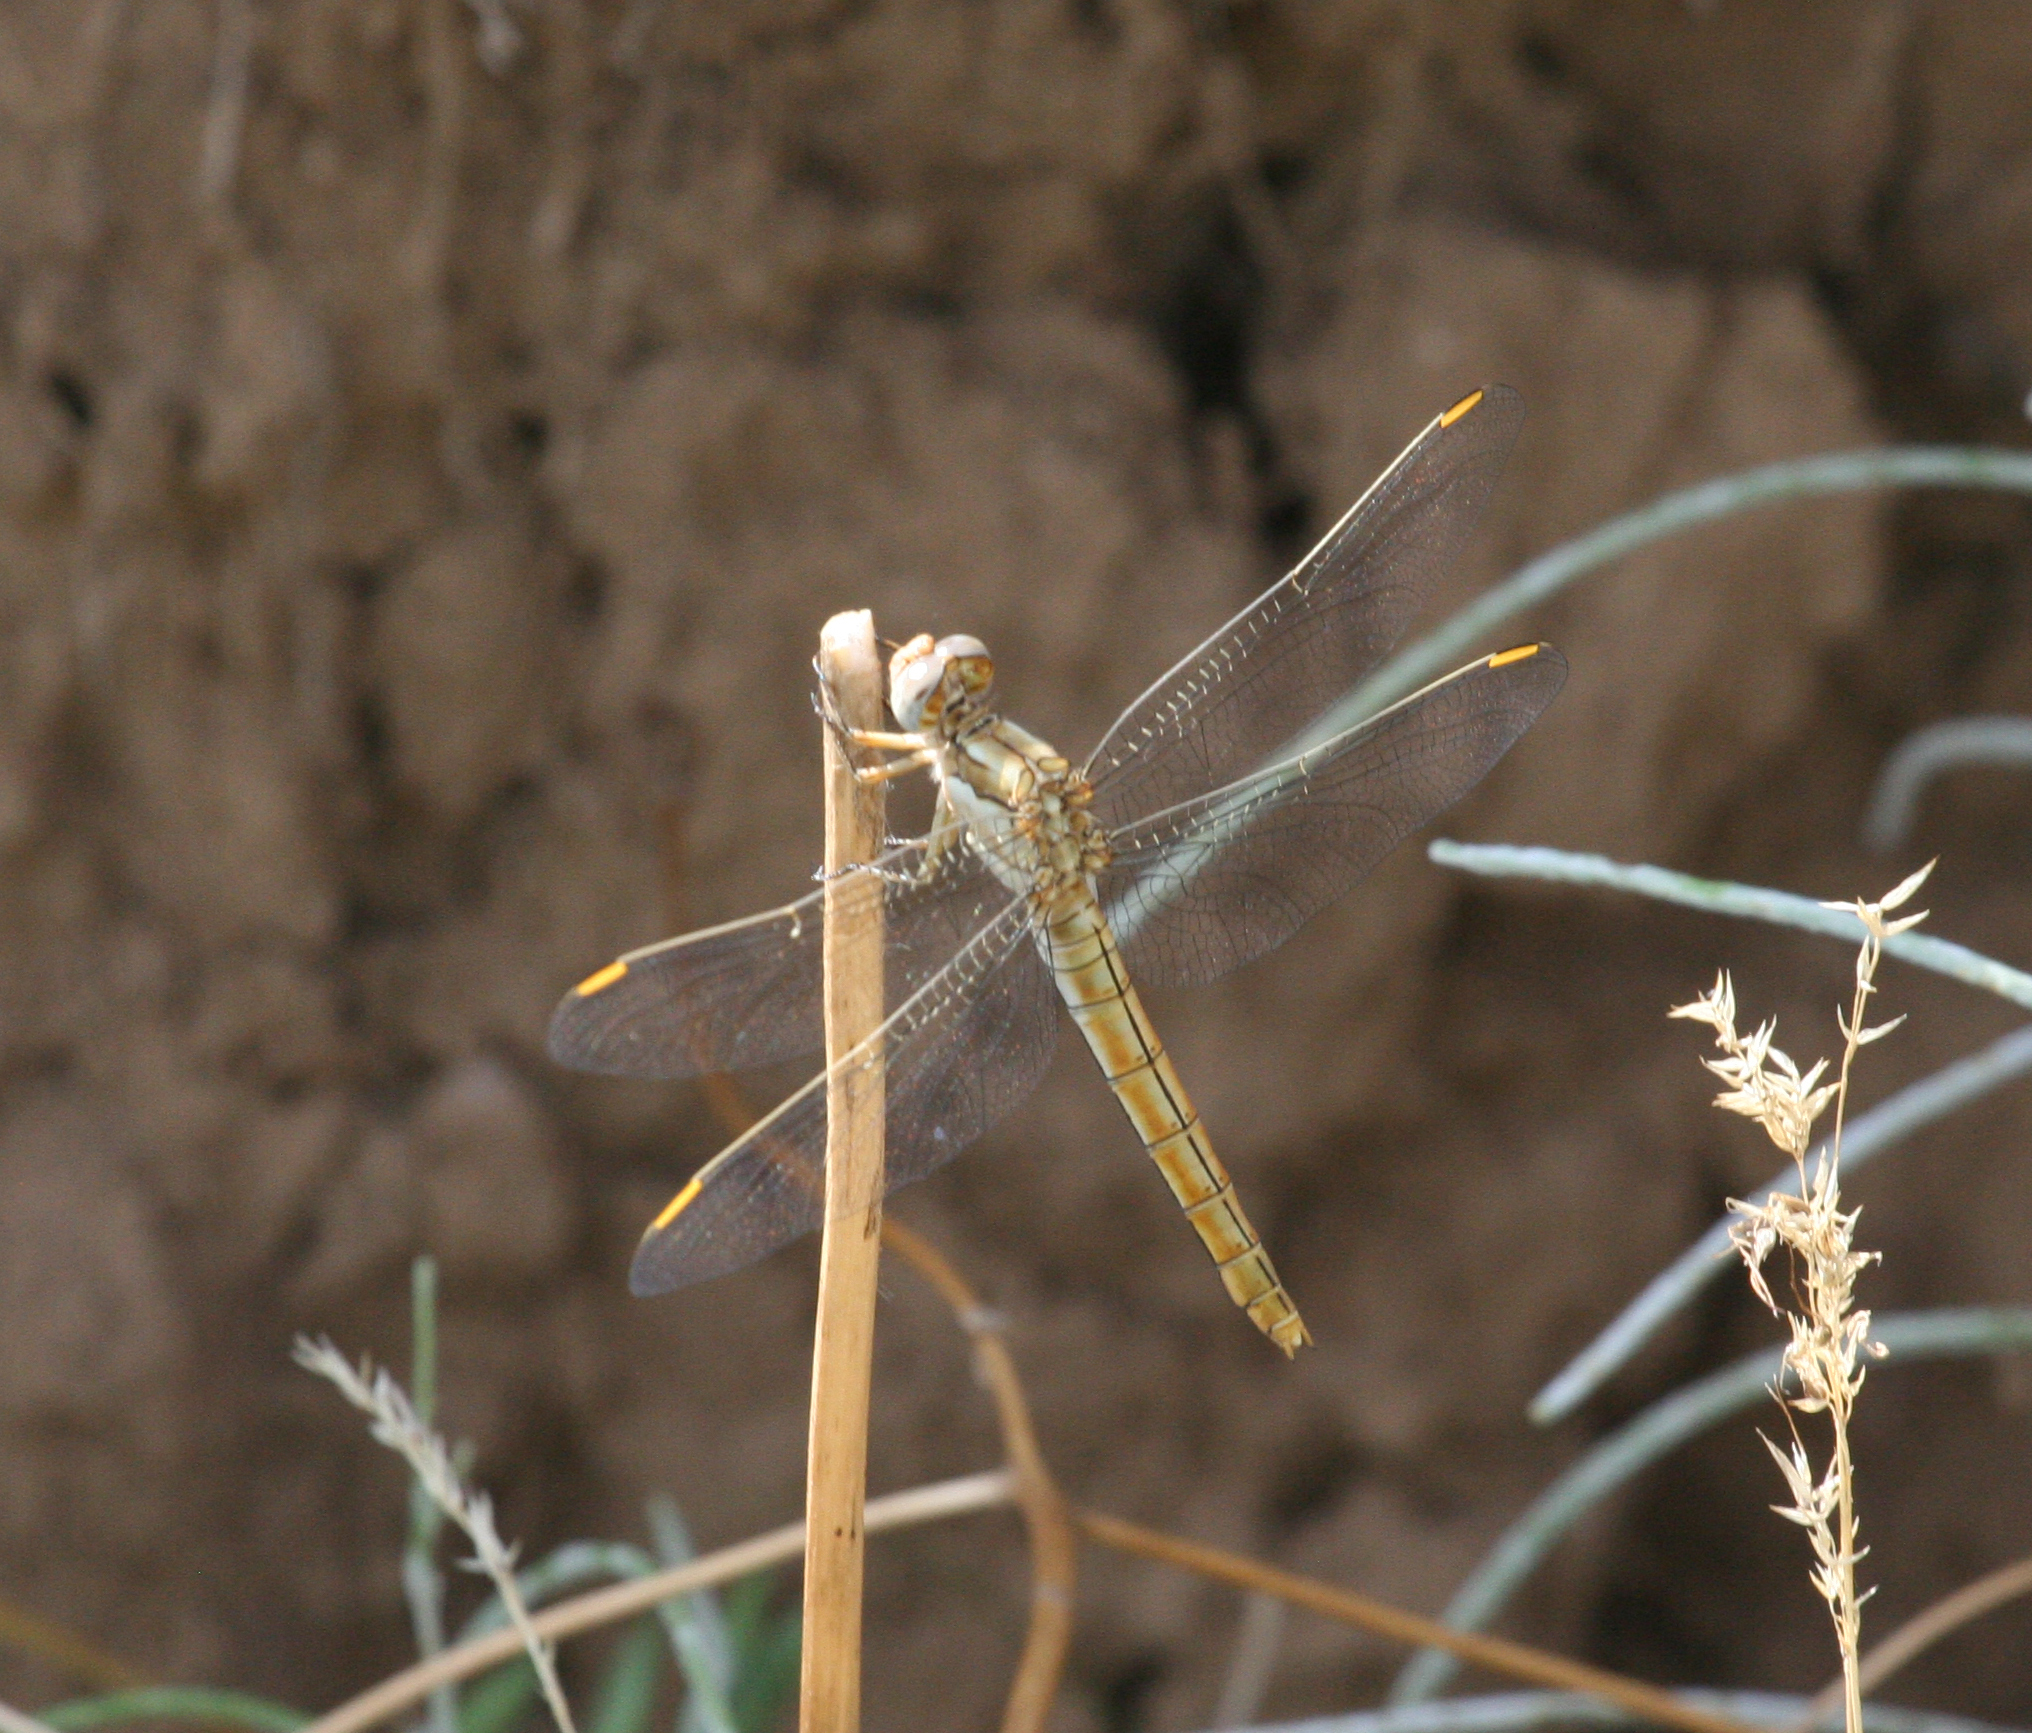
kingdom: Animalia
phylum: Arthropoda
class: Insecta
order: Odonata
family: Libellulidae
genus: Orthetrum
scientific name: Orthetrum brunneum
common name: Southern skimmer
